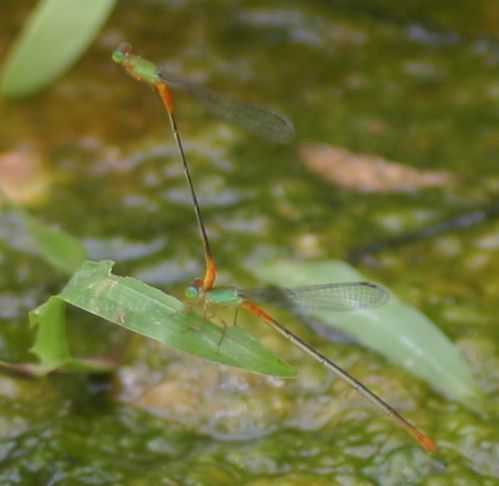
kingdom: Animalia
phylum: Arthropoda
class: Insecta
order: Odonata
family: Coenagrionidae
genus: Ceriagrion
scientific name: Ceriagrion cerinorubellum
